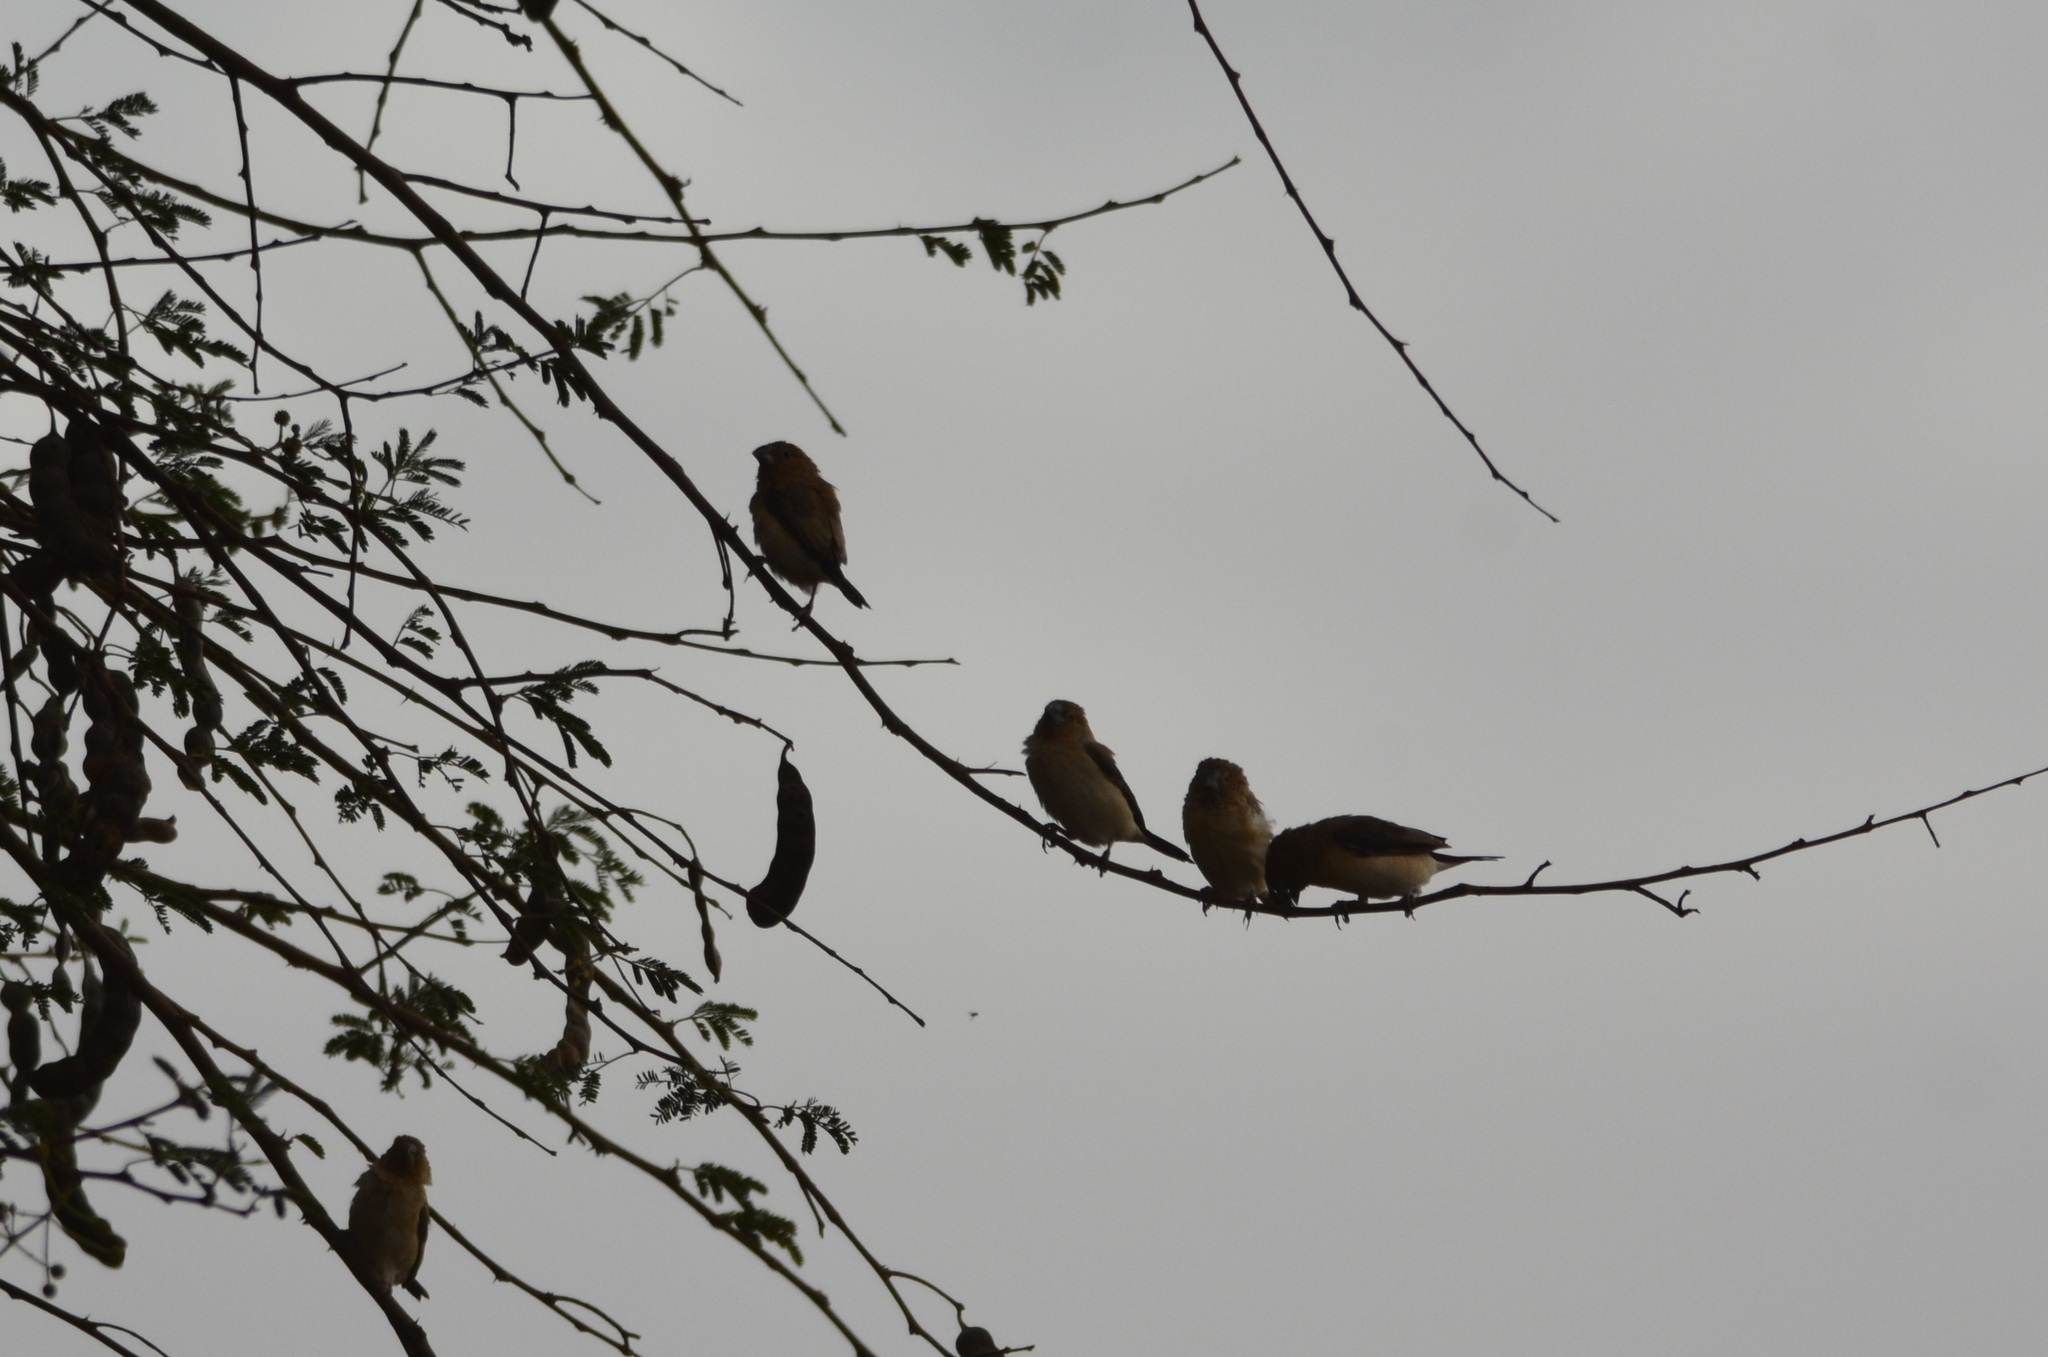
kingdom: Animalia
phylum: Chordata
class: Aves
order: Passeriformes
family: Estrildidae
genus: Euodice
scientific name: Euodice cantans
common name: African silverbill
